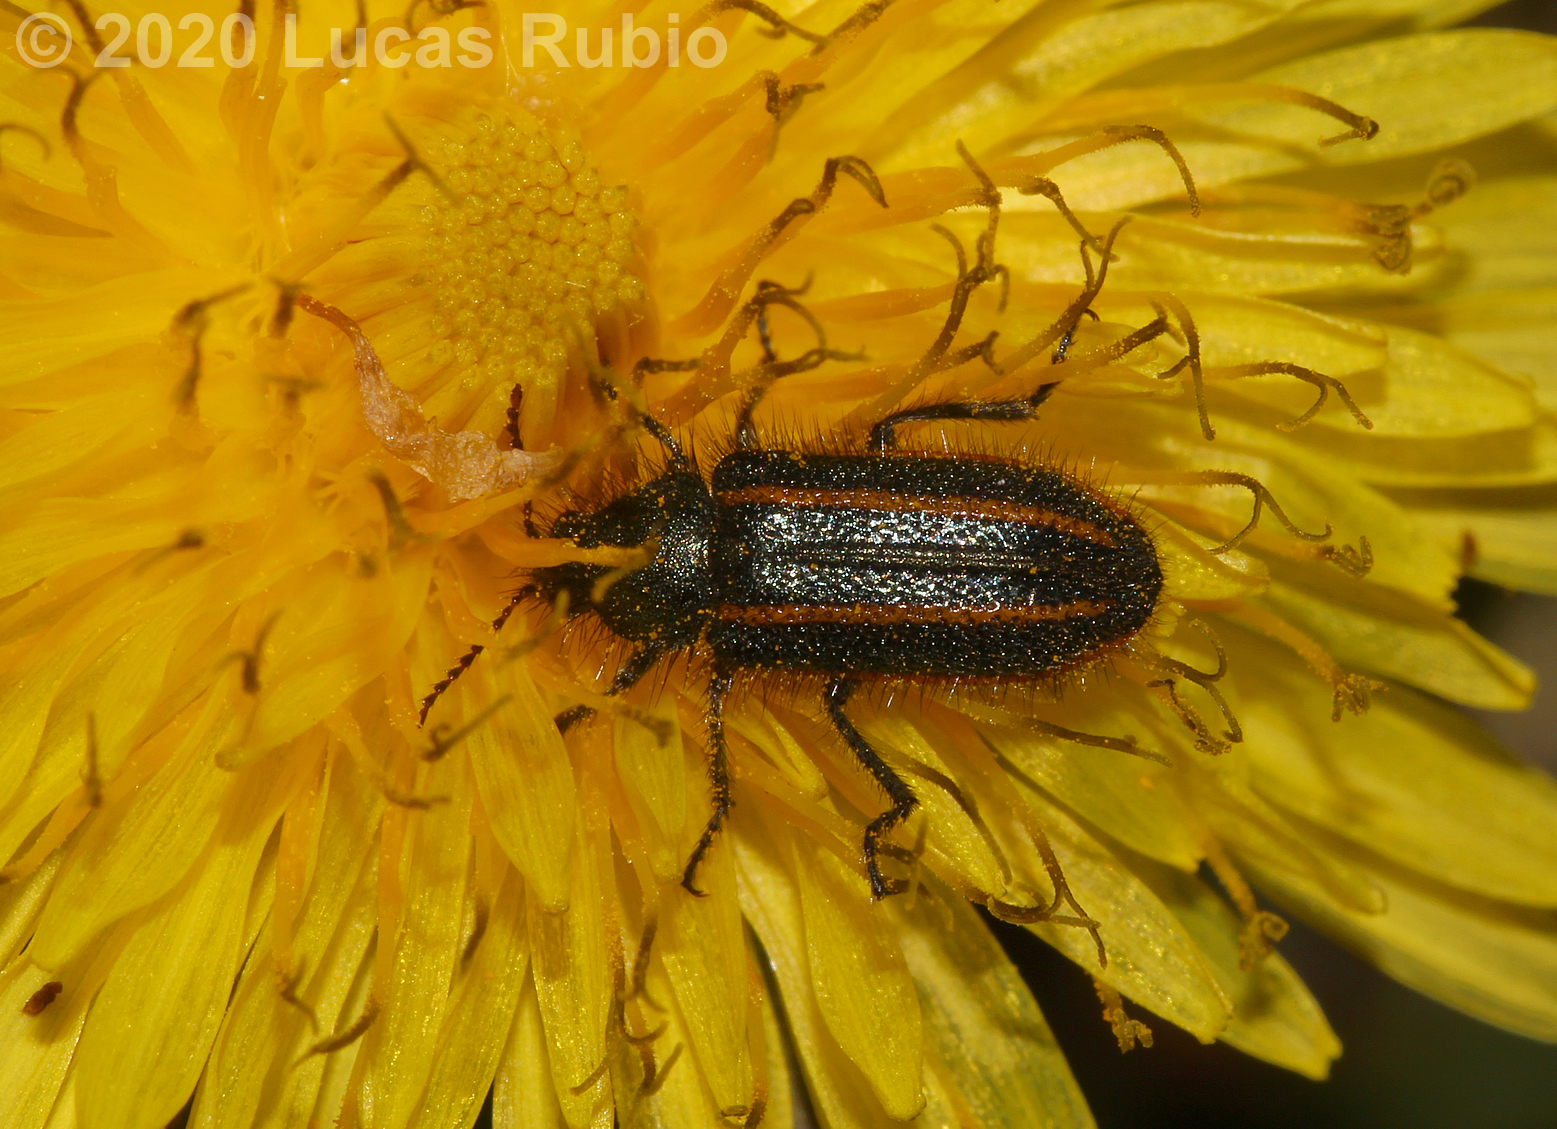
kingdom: Animalia
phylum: Arthropoda
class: Insecta
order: Coleoptera
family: Melyridae
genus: Astylus
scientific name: Astylus
